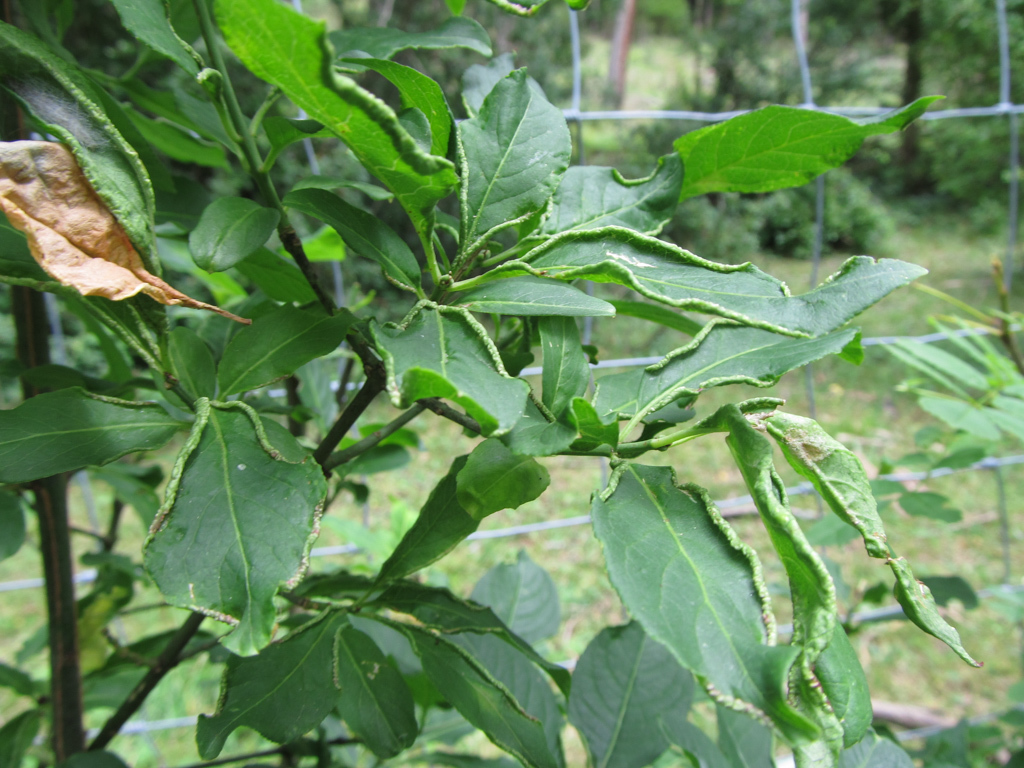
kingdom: Plantae
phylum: Tracheophyta
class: Magnoliopsida
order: Celastrales
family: Celastraceae
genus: Euonymus
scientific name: Euonymus europaeus
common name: Spindle
